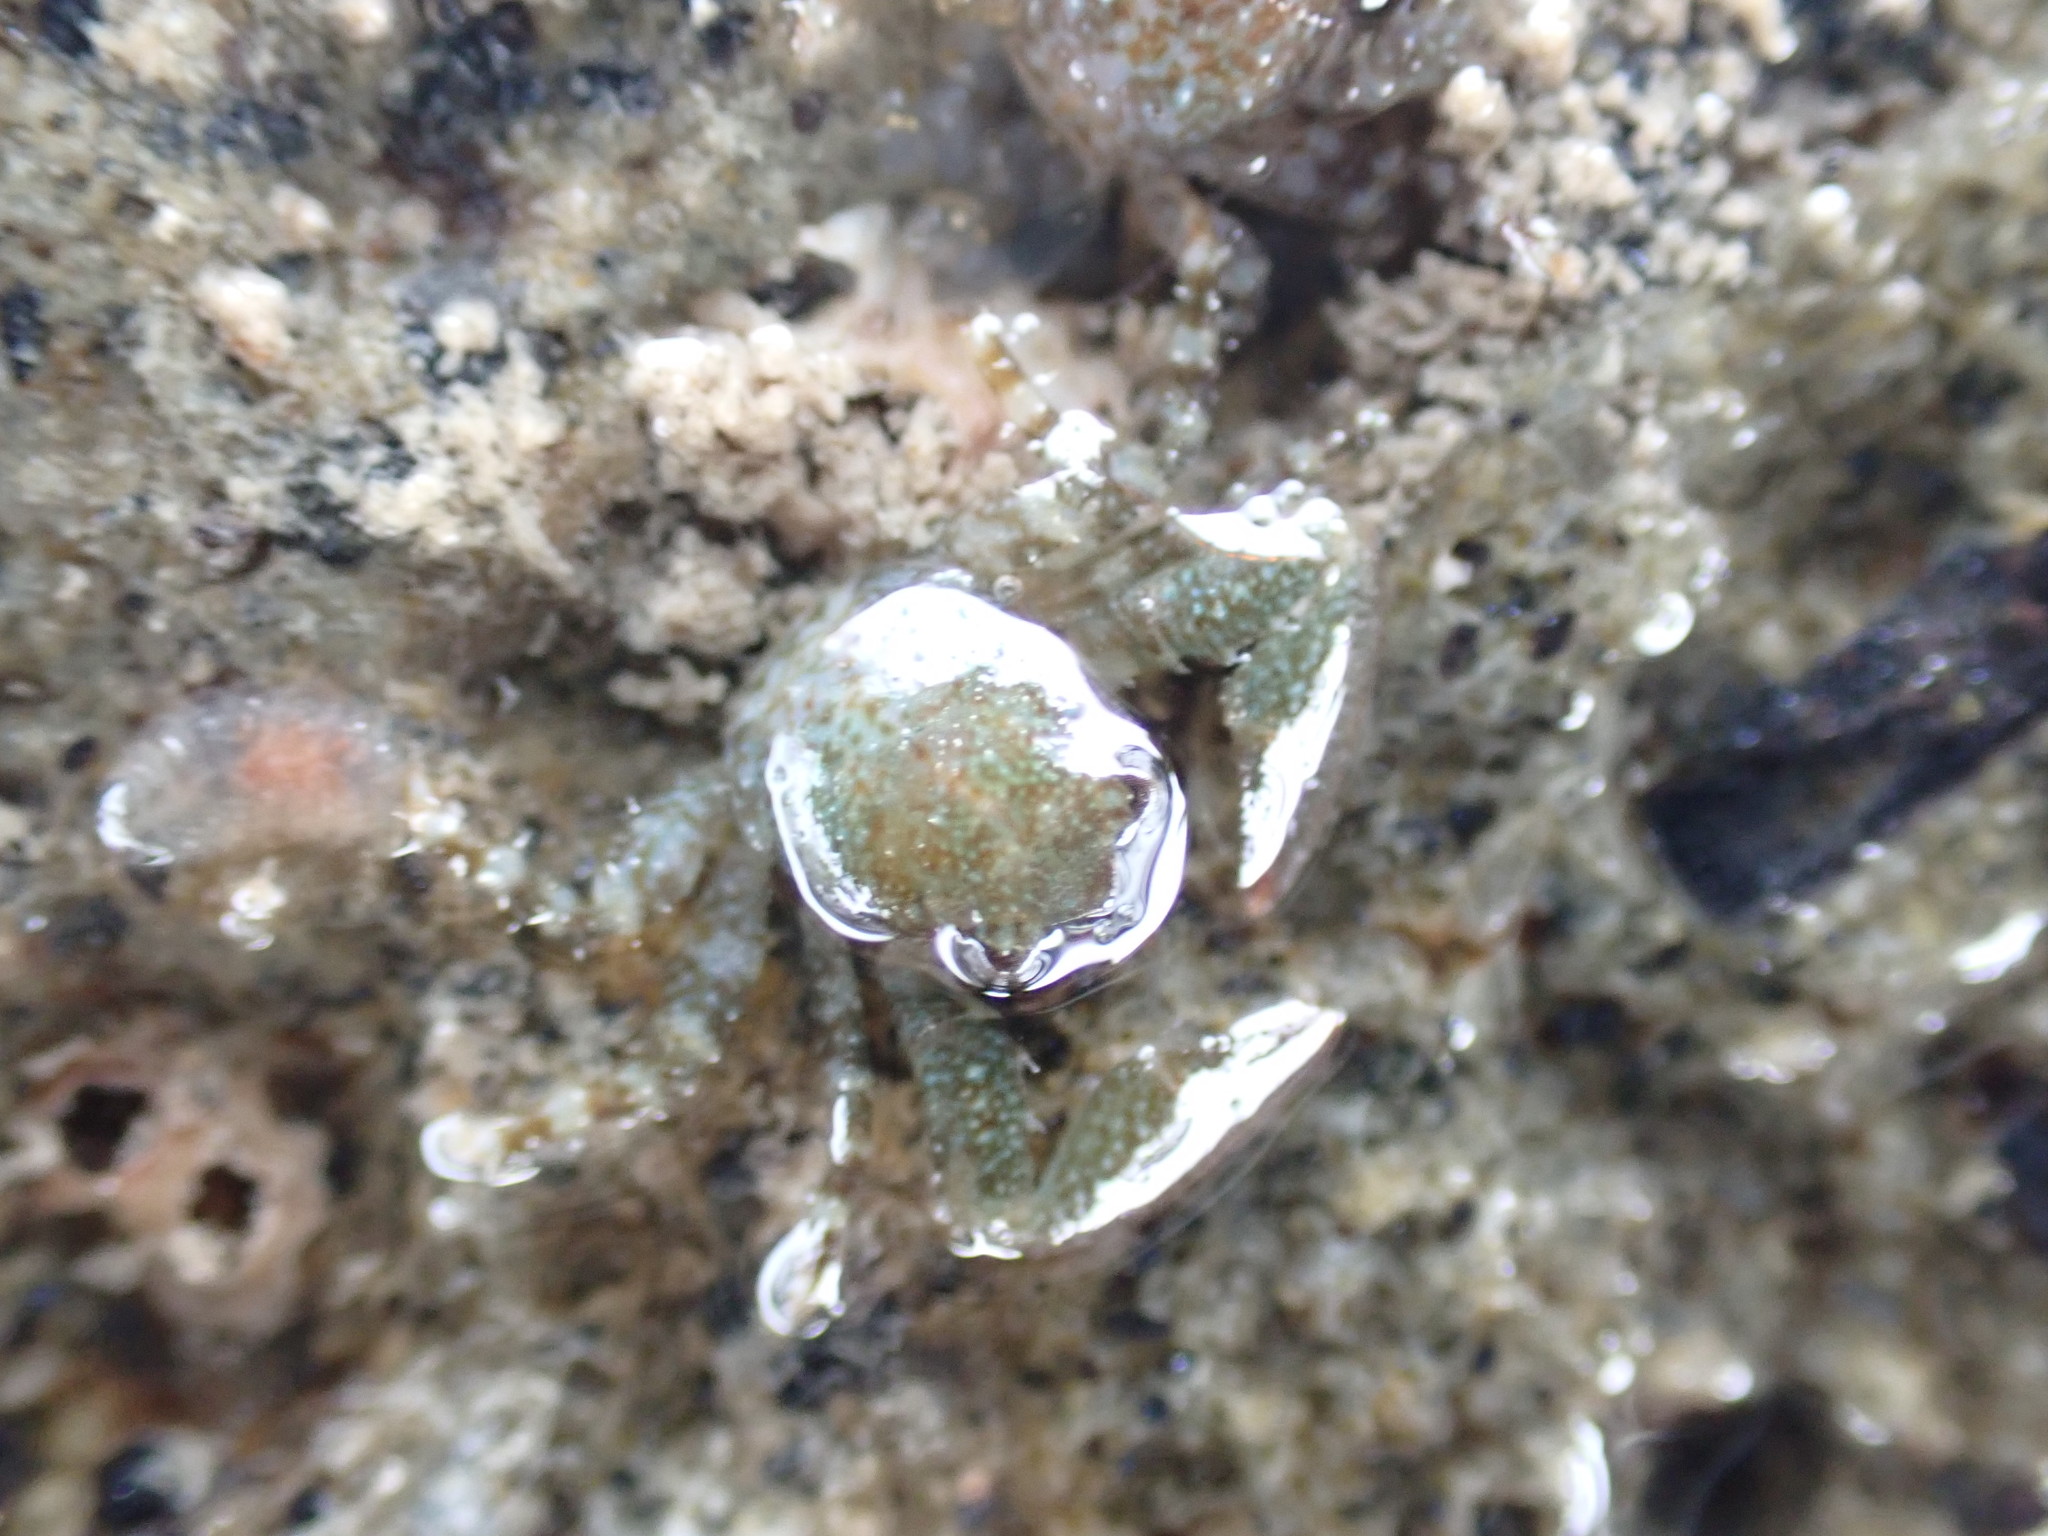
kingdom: Animalia
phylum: Arthropoda
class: Malacostraca
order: Decapoda
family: Porcellanidae
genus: Petrolisthes
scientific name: Petrolisthes elongatus
